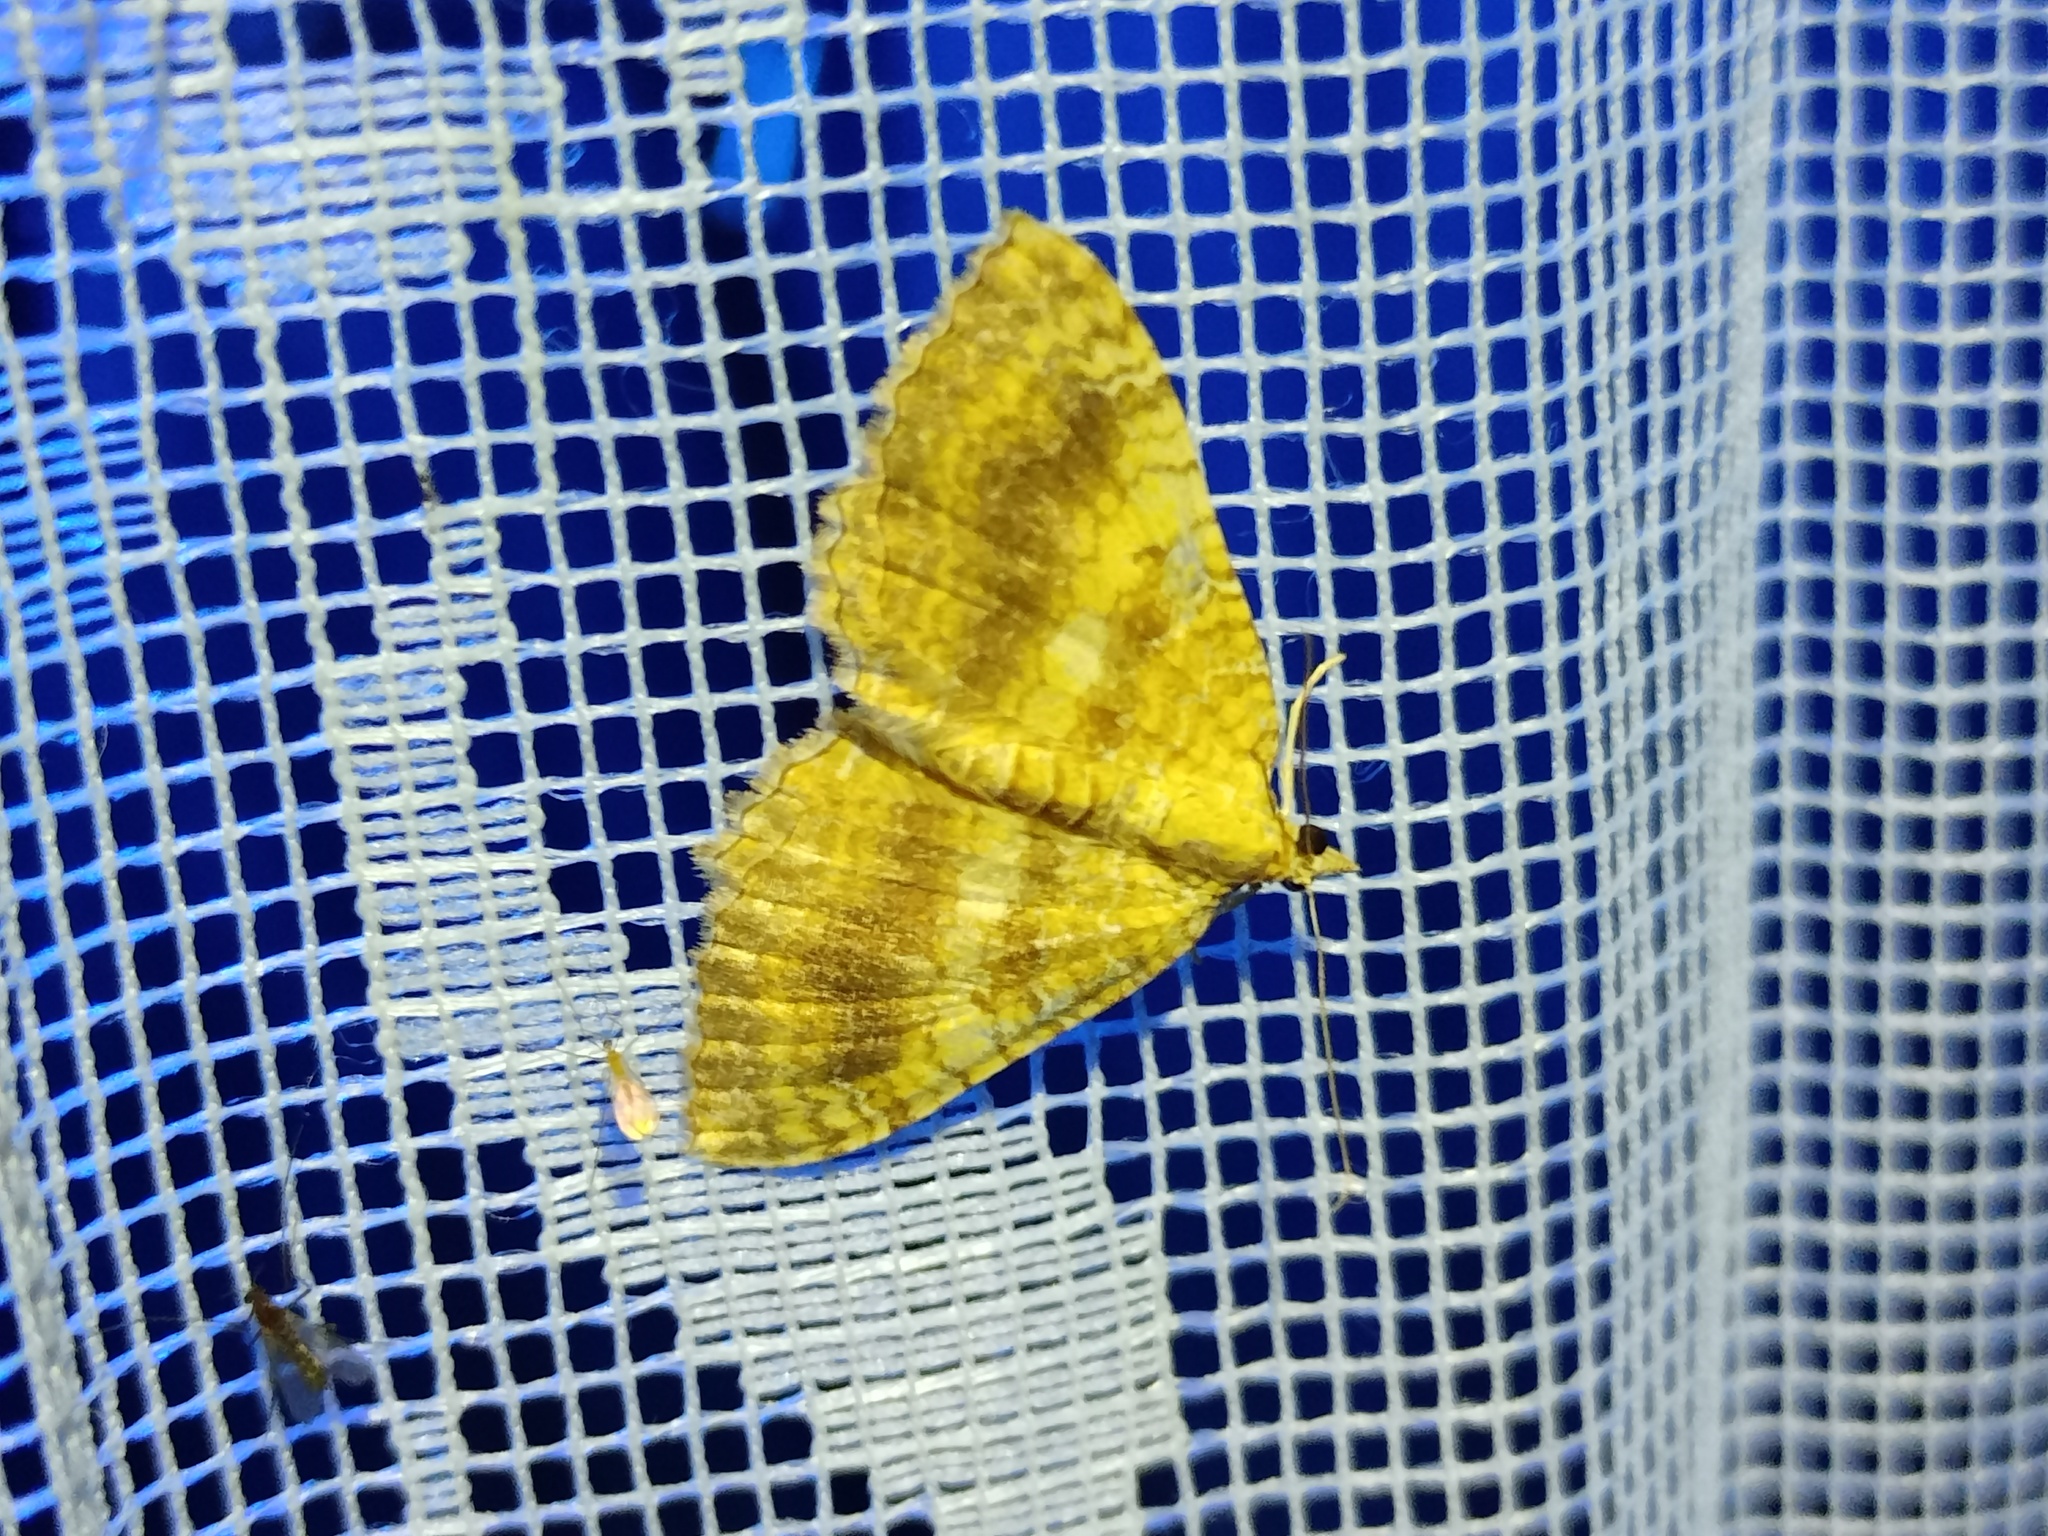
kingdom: Animalia
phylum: Arthropoda
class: Insecta
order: Lepidoptera
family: Geometridae
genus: Camptogramma
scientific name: Camptogramma bilineata
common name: Yellow shell
